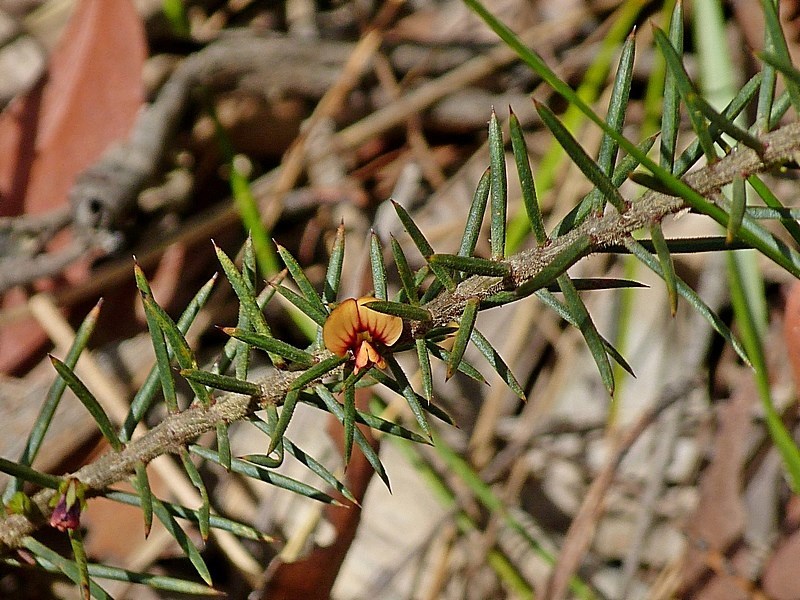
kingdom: Plantae
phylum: Tracheophyta
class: Magnoliopsida
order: Fabales
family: Fabaceae
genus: Daviesia
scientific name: Daviesia acicularis
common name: Sandplain bitter-pea
